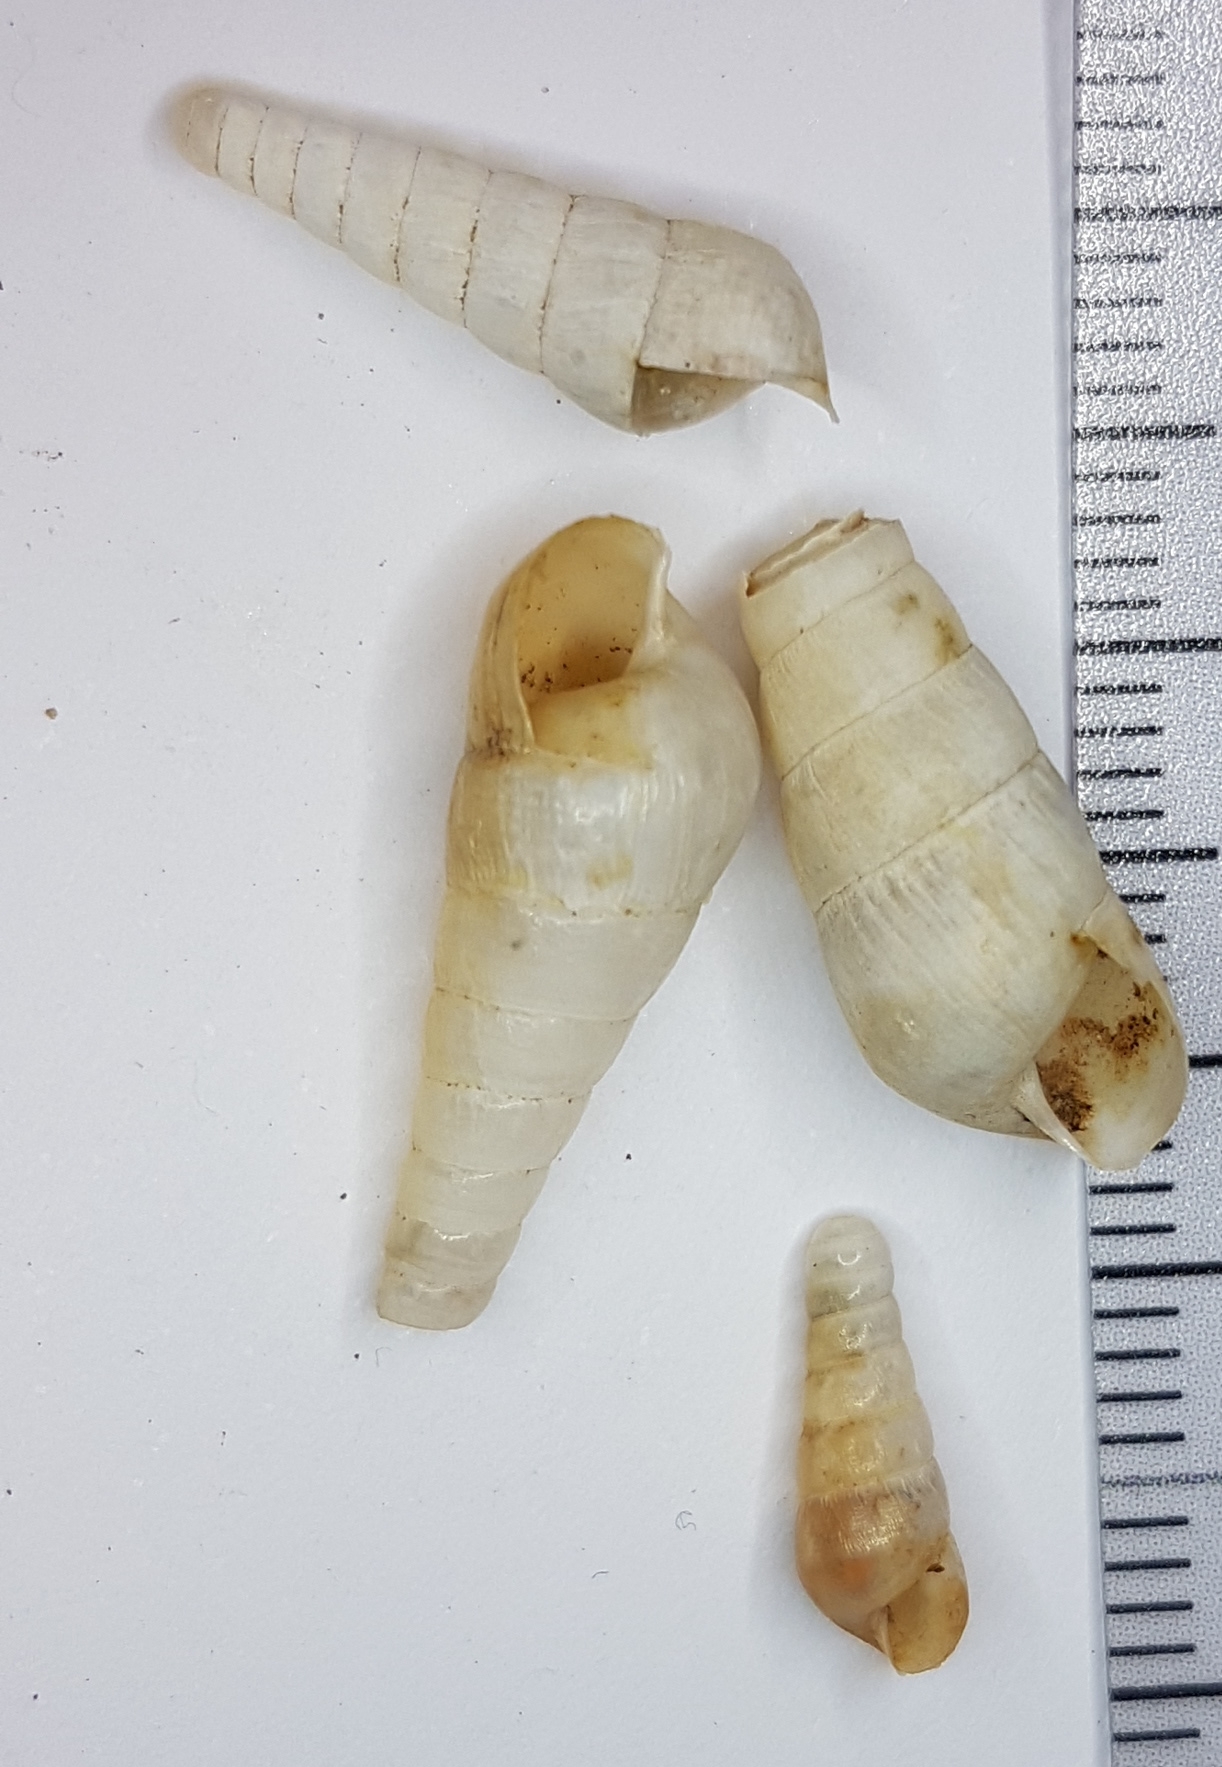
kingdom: Animalia
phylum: Mollusca
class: Gastropoda
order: Stylommatophora
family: Achatinidae
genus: Rumina
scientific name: Rumina decollata
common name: Decollate snail
